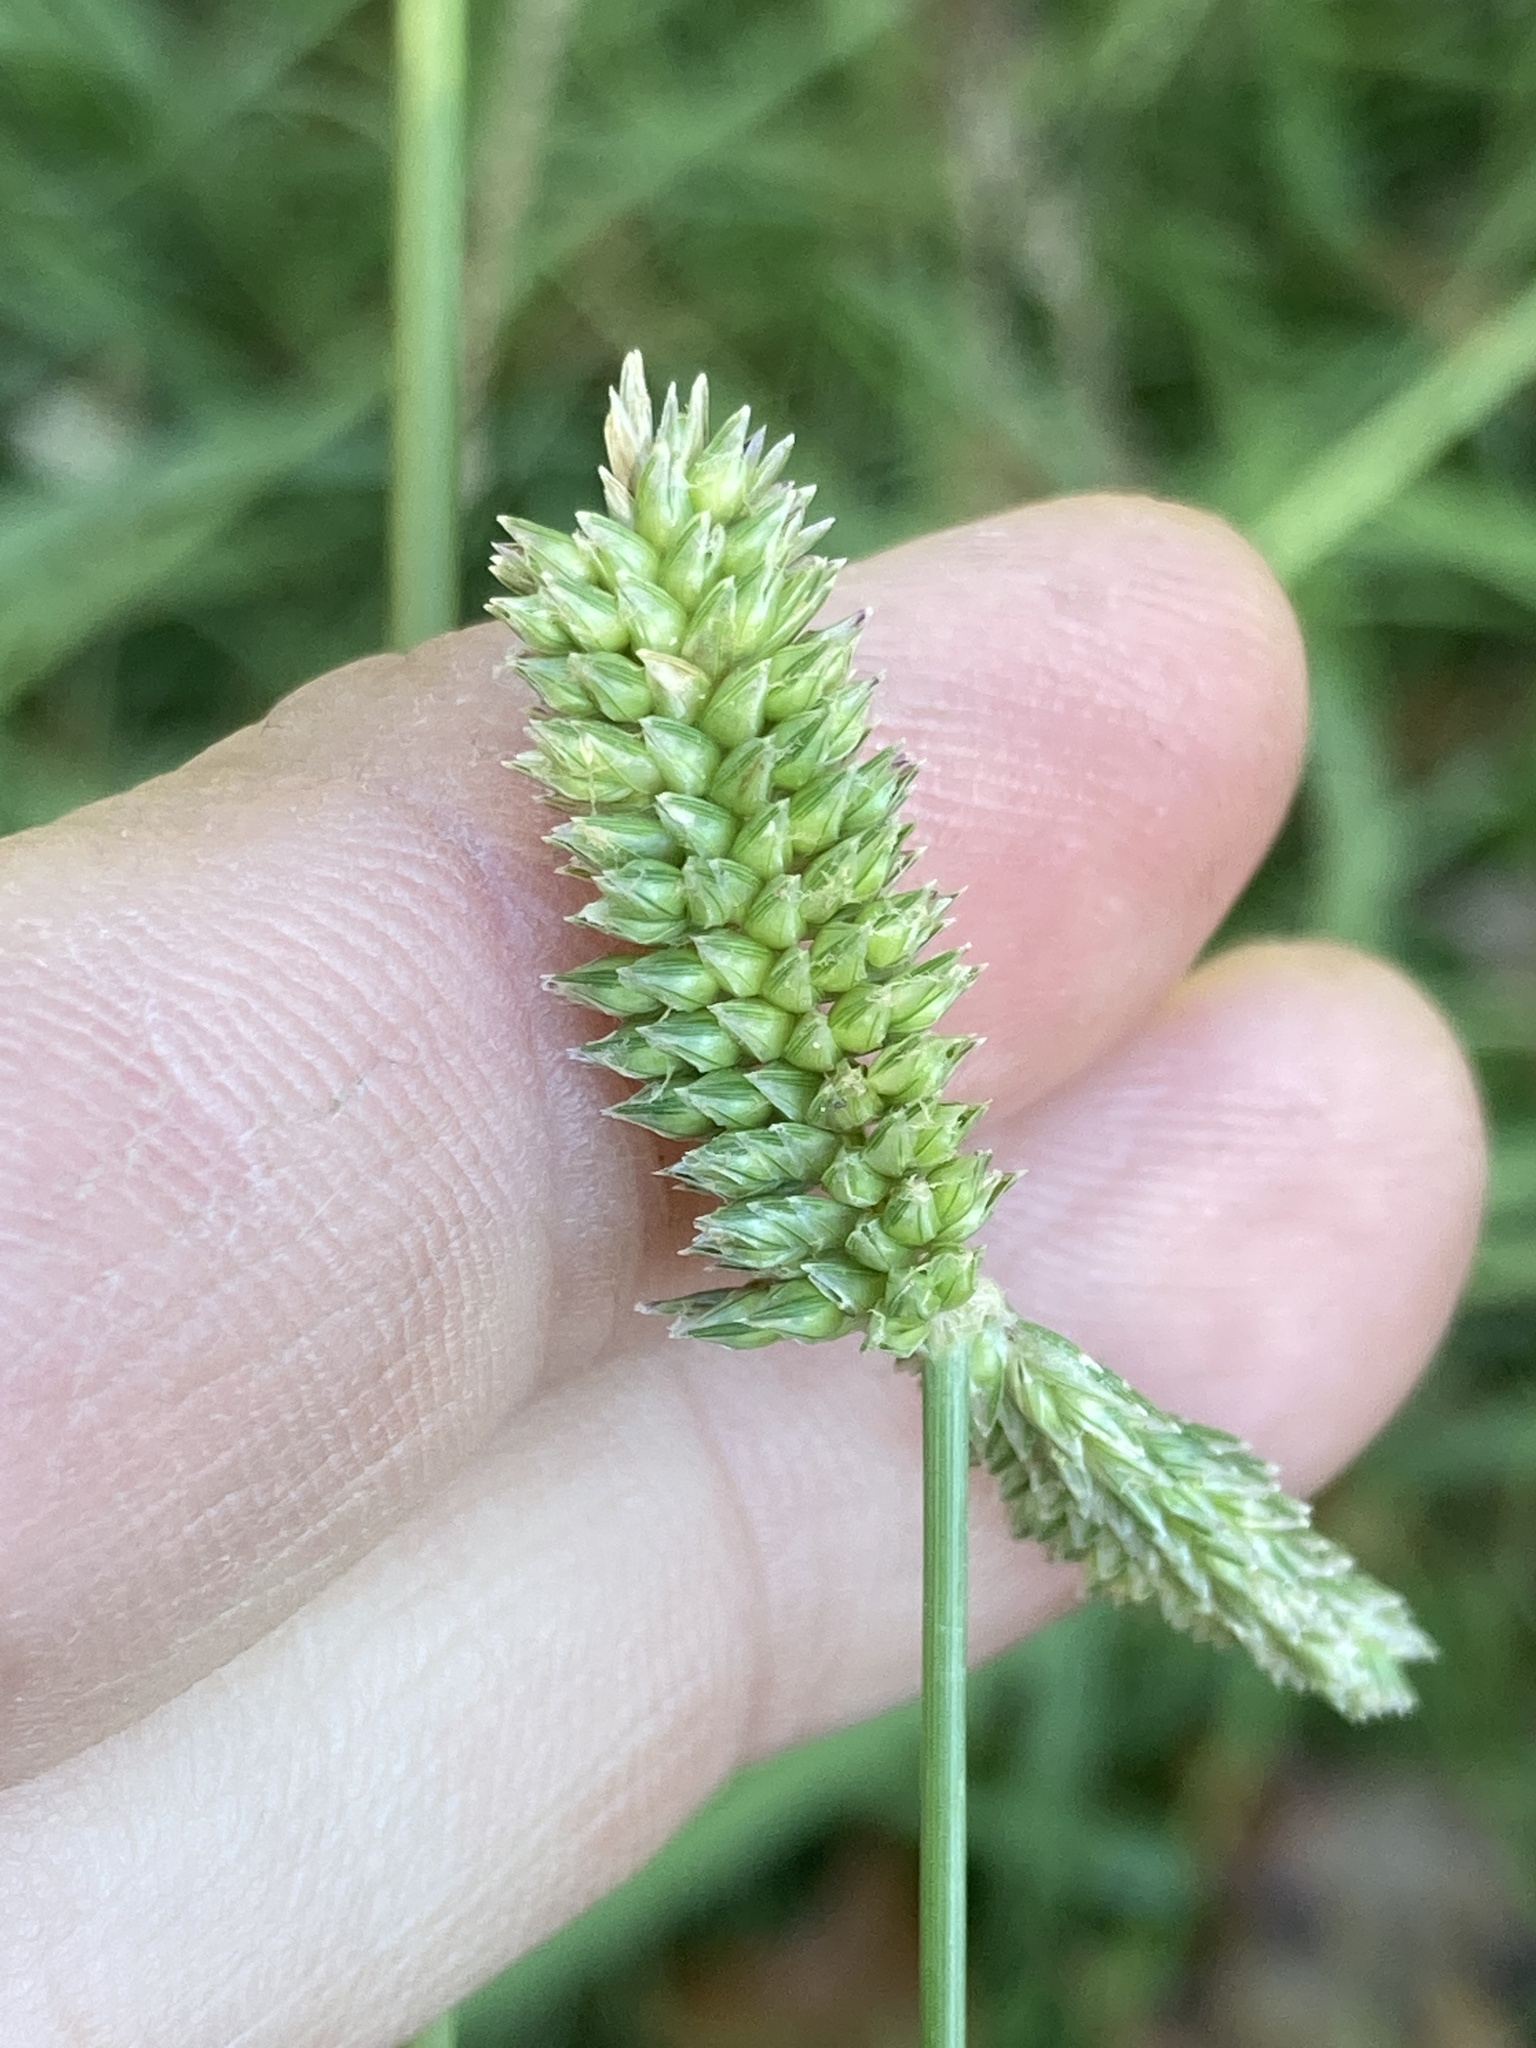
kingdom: Plantae
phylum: Tracheophyta
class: Liliopsida
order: Poales
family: Poaceae
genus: Eleusine
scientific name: Eleusine tristachya
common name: American yard-grass
